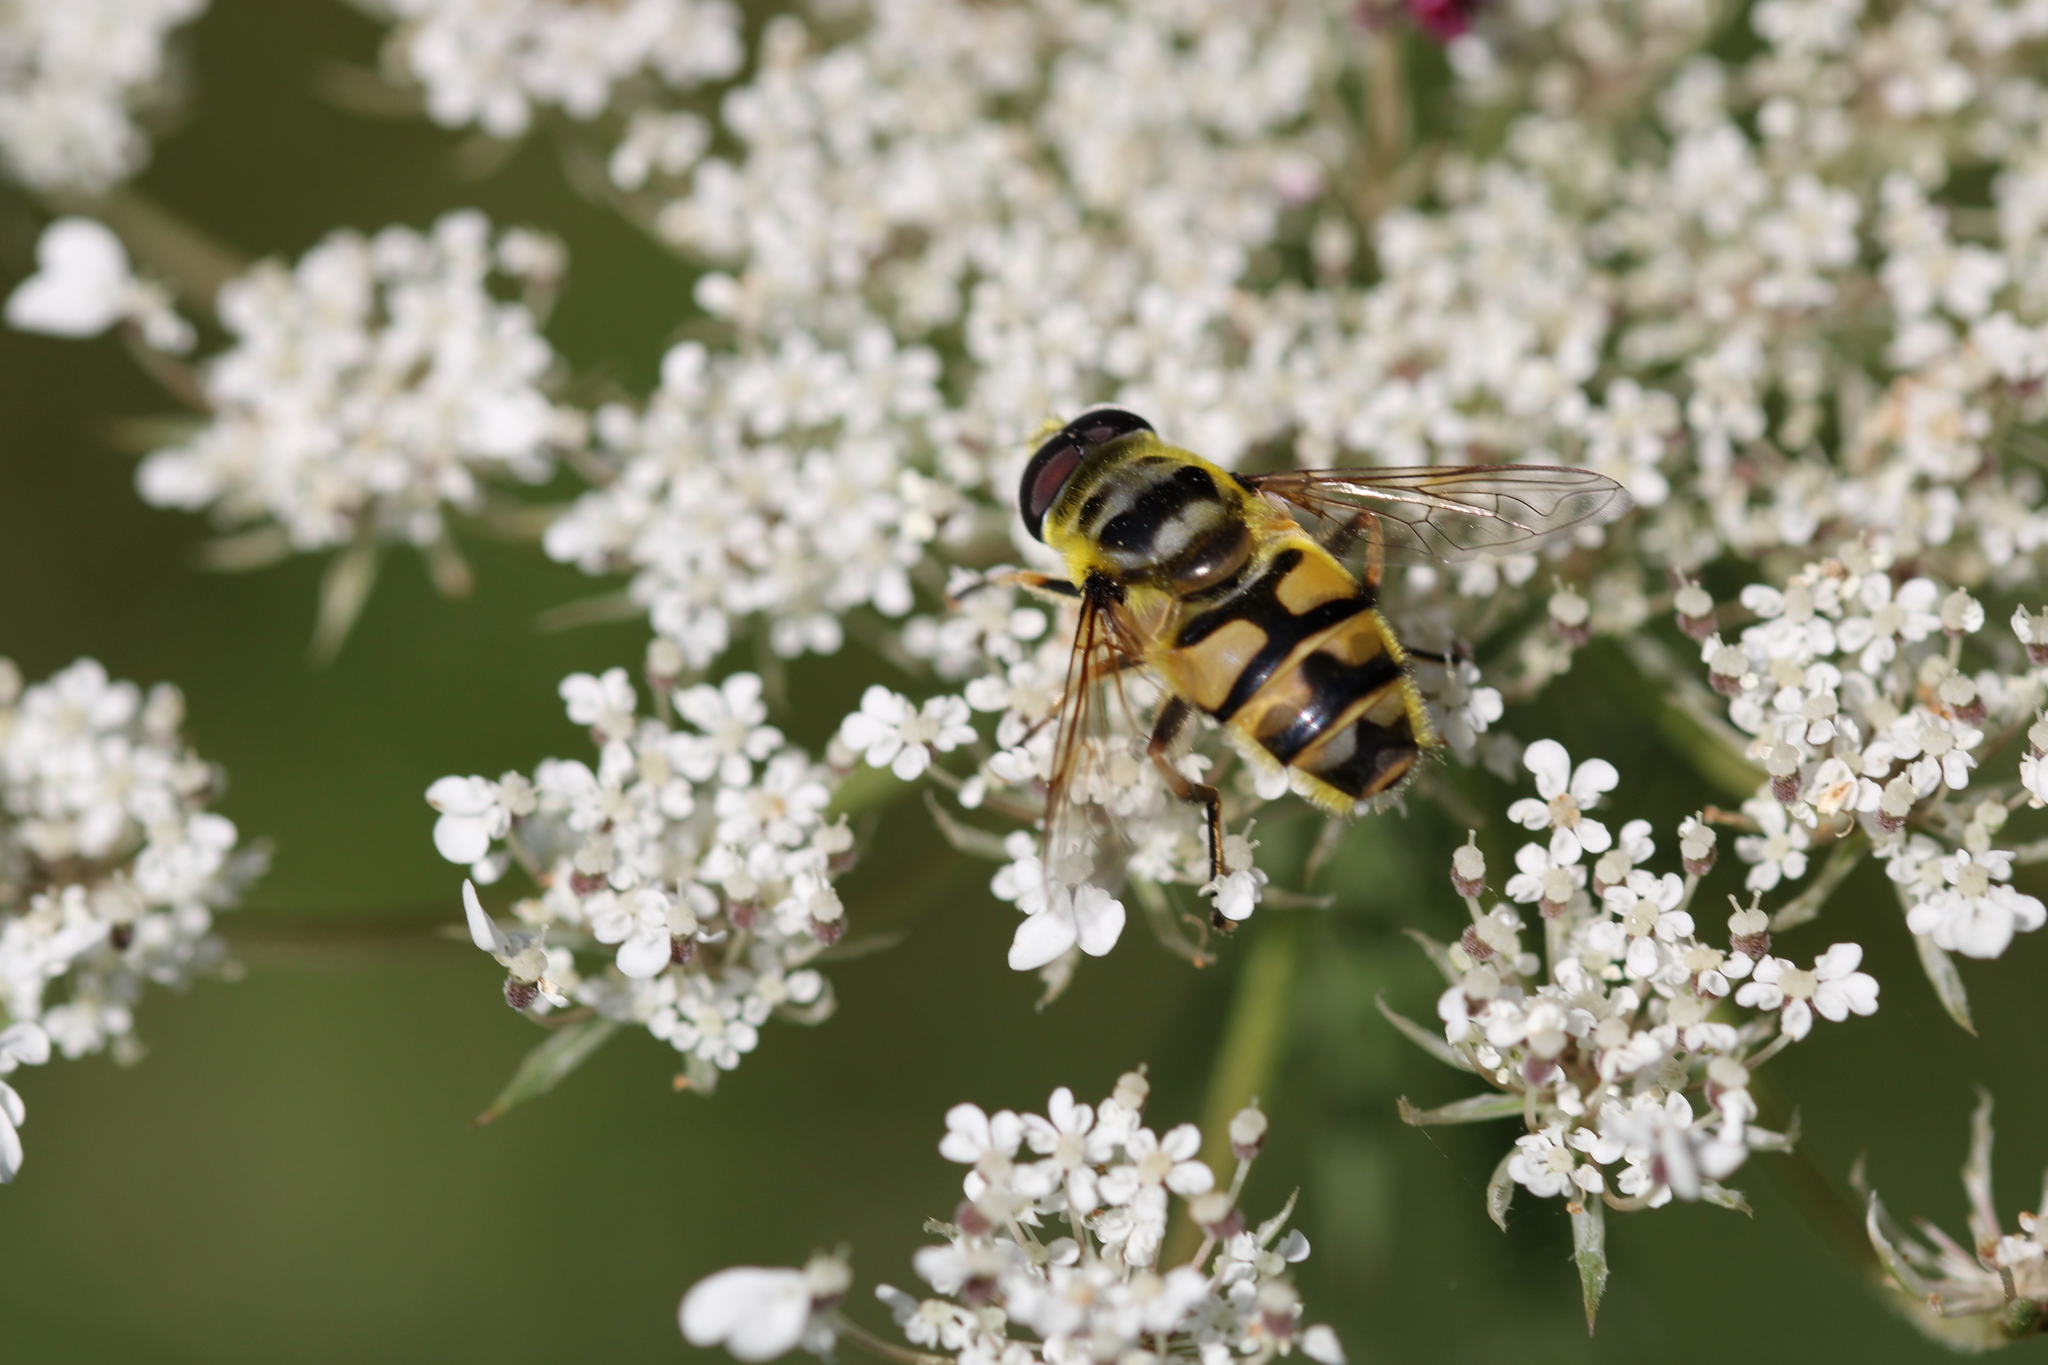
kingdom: Animalia
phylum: Arthropoda
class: Insecta
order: Diptera
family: Syrphidae
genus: Myathropa
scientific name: Myathropa florea
